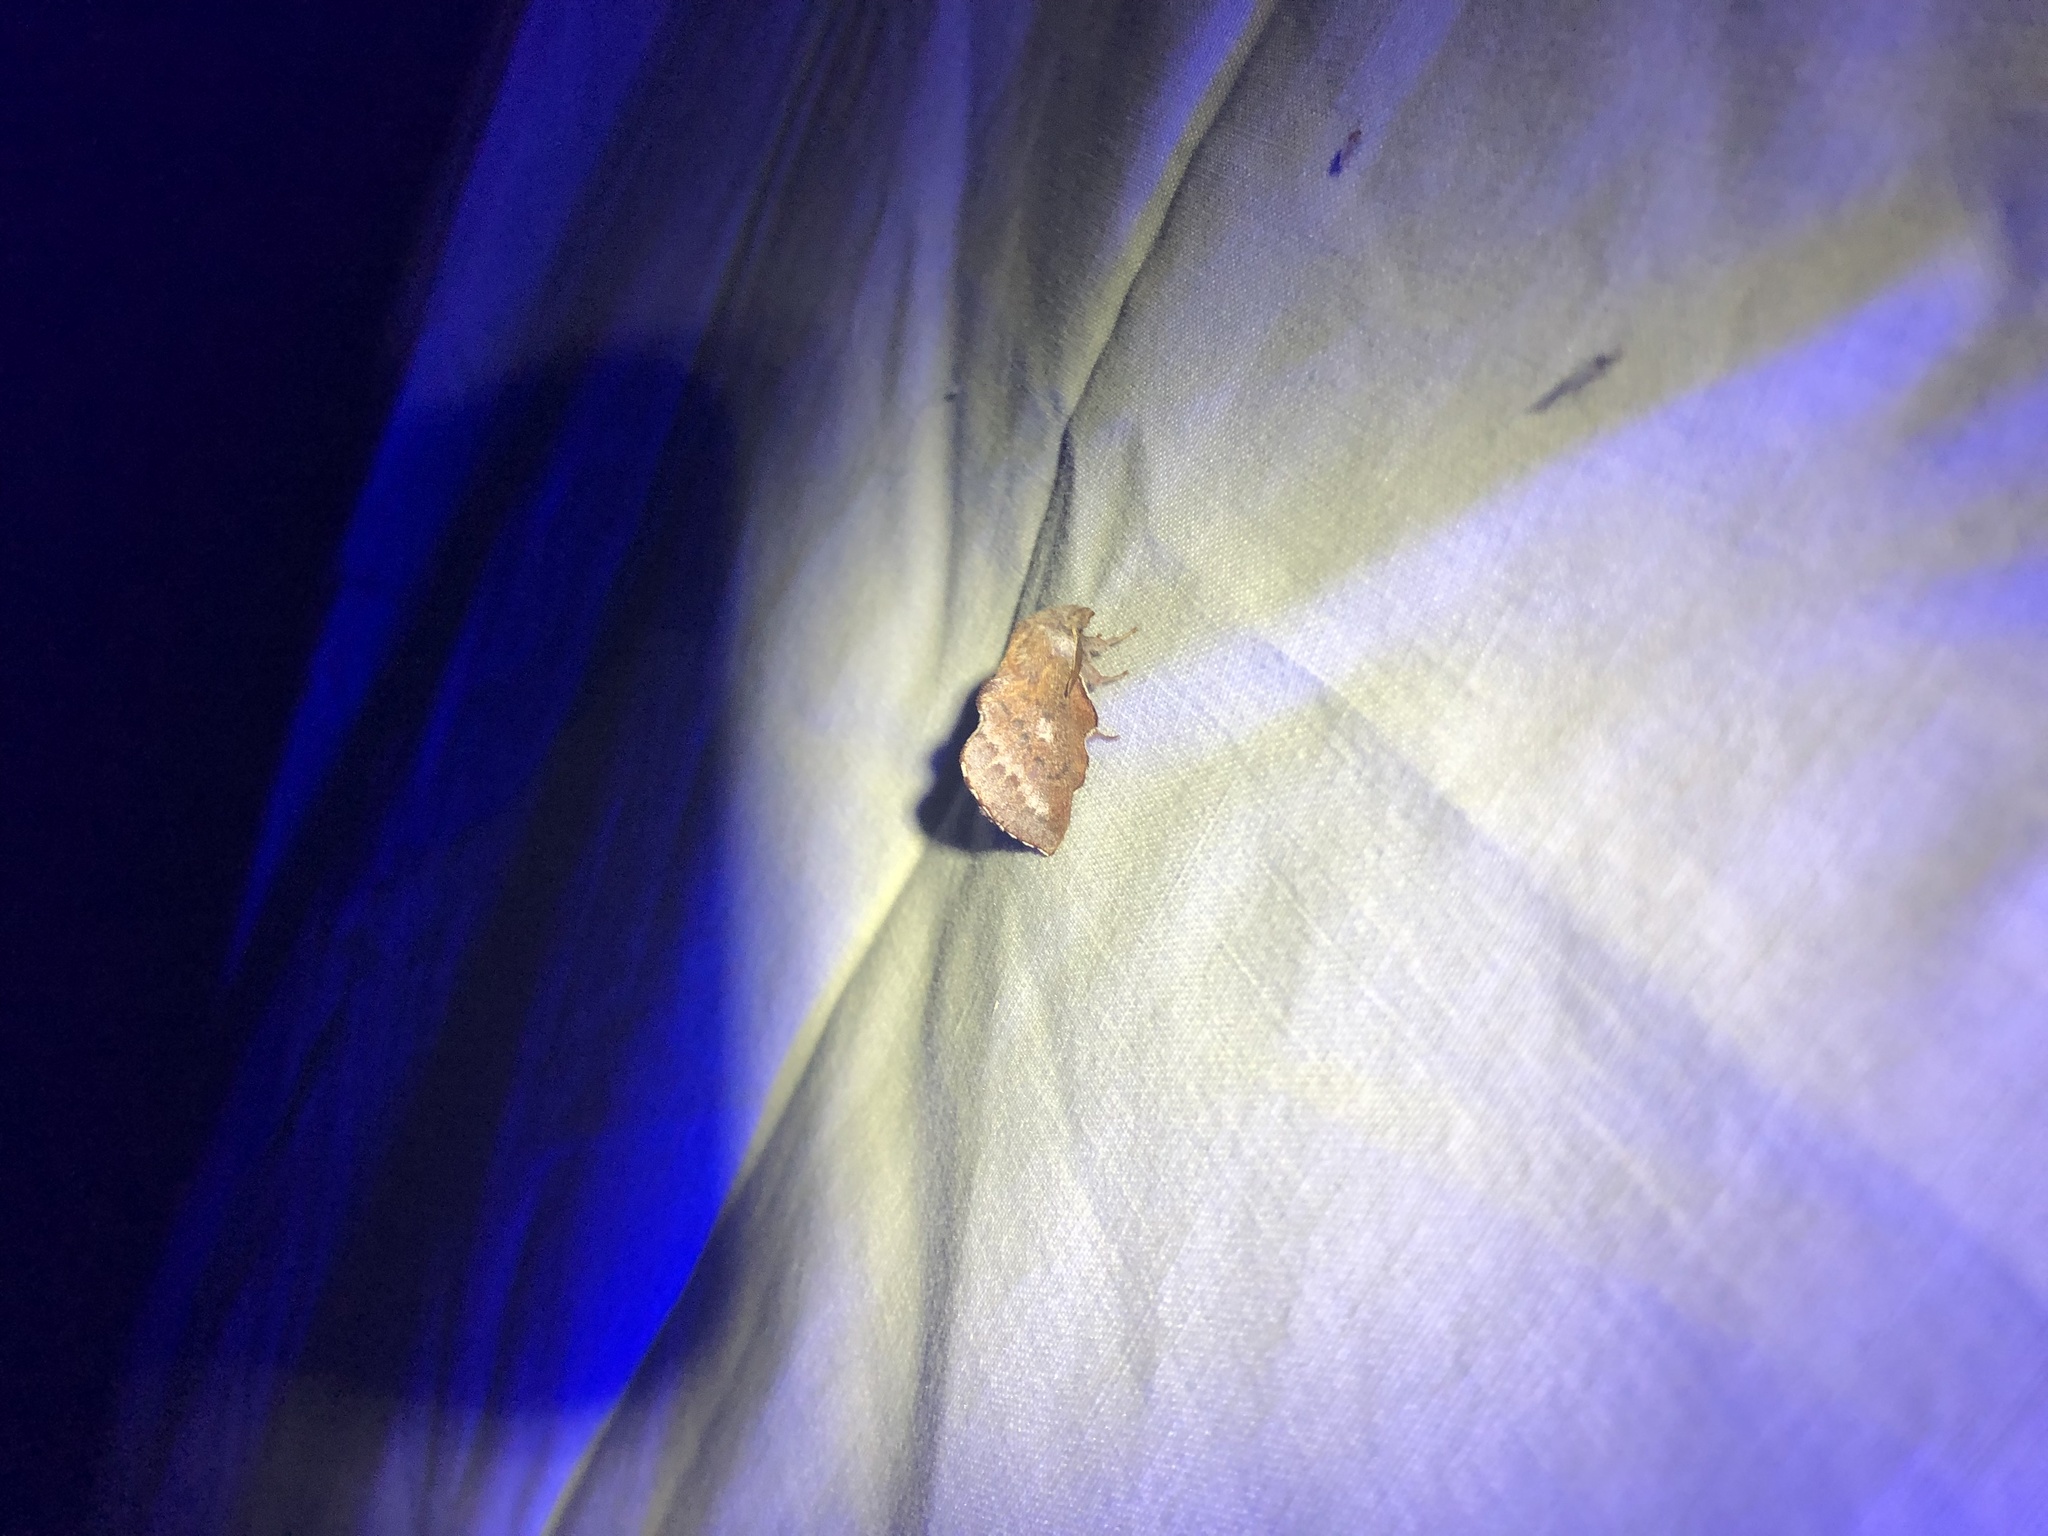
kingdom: Animalia
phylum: Arthropoda
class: Insecta
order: Lepidoptera
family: Lasiocampidae
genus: Phyllodesma
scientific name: Phyllodesma americana
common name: American lappet moth
